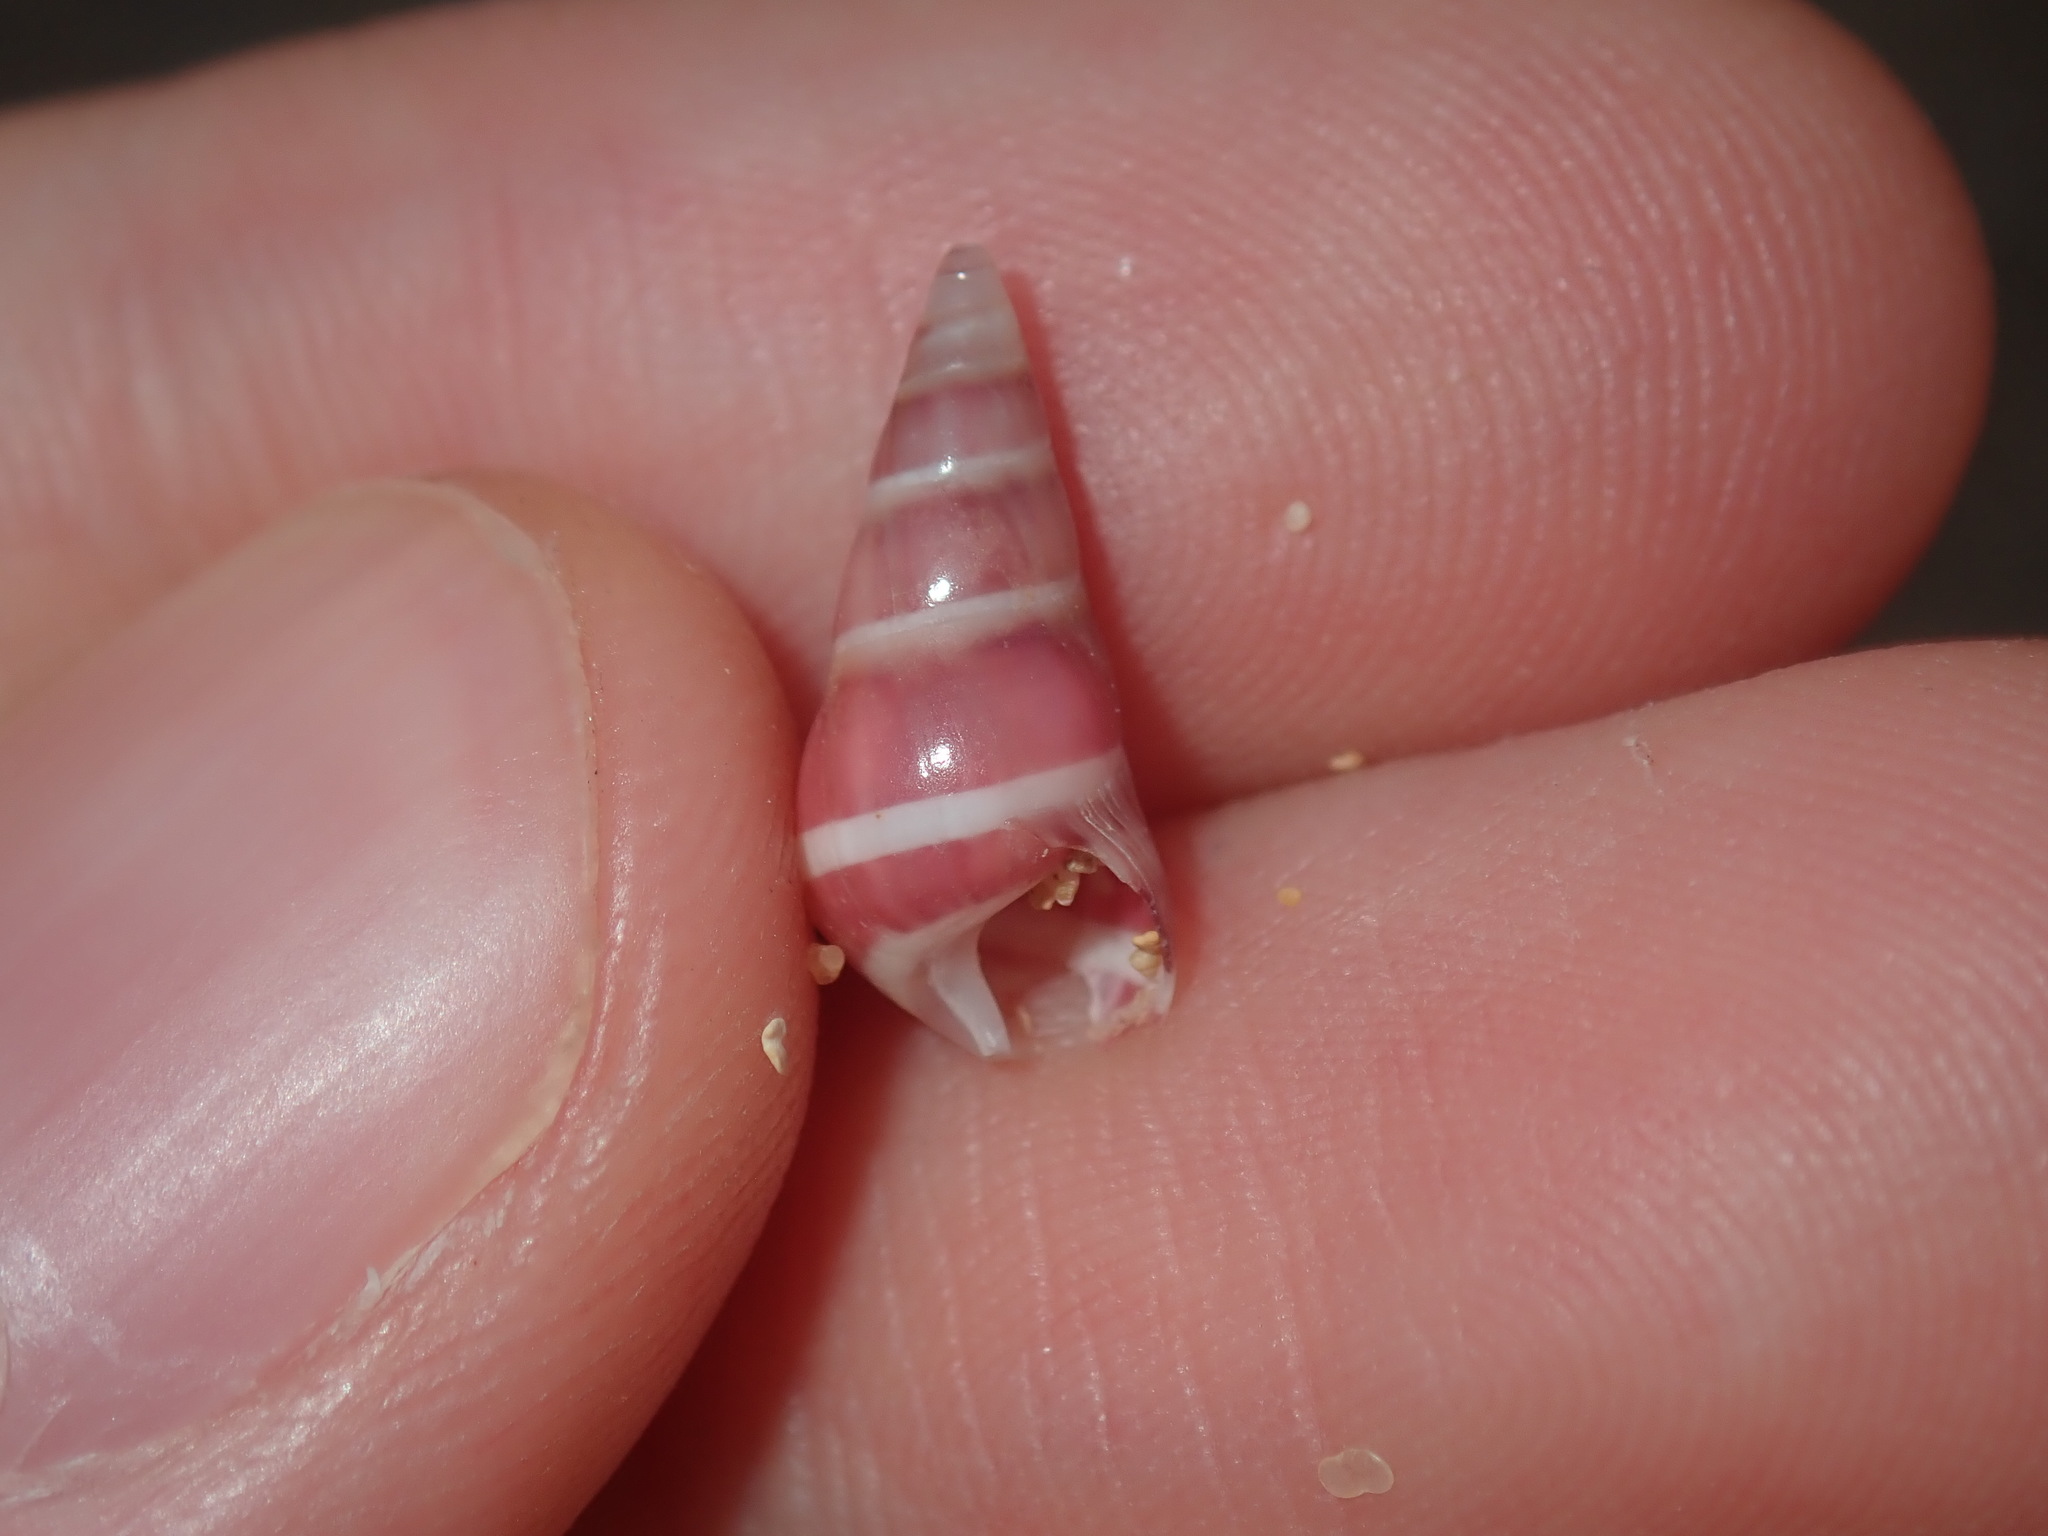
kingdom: Animalia
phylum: Mollusca
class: Gastropoda
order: Trochida
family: Trochidae
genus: Bankivia
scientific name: Bankivia fasciata
